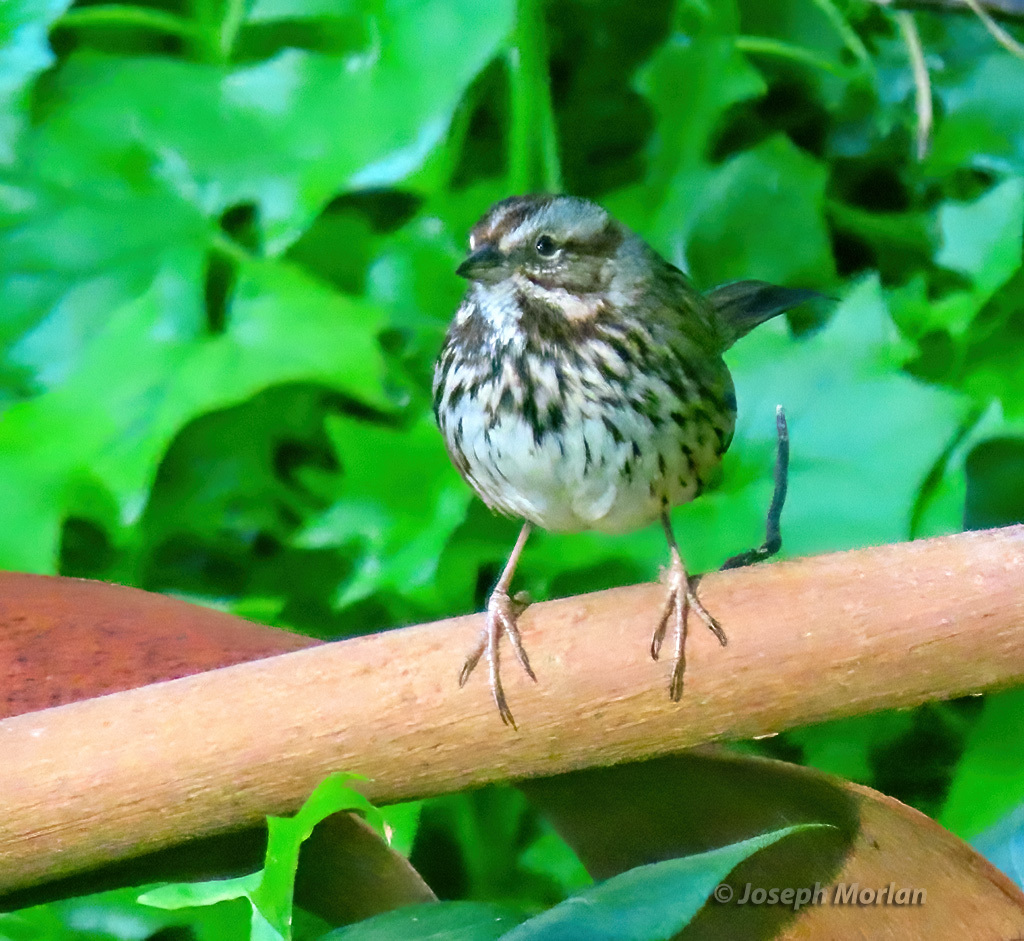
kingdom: Animalia
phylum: Chordata
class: Aves
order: Passeriformes
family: Passerellidae
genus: Melospiza
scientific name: Melospiza melodia
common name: Song sparrow
